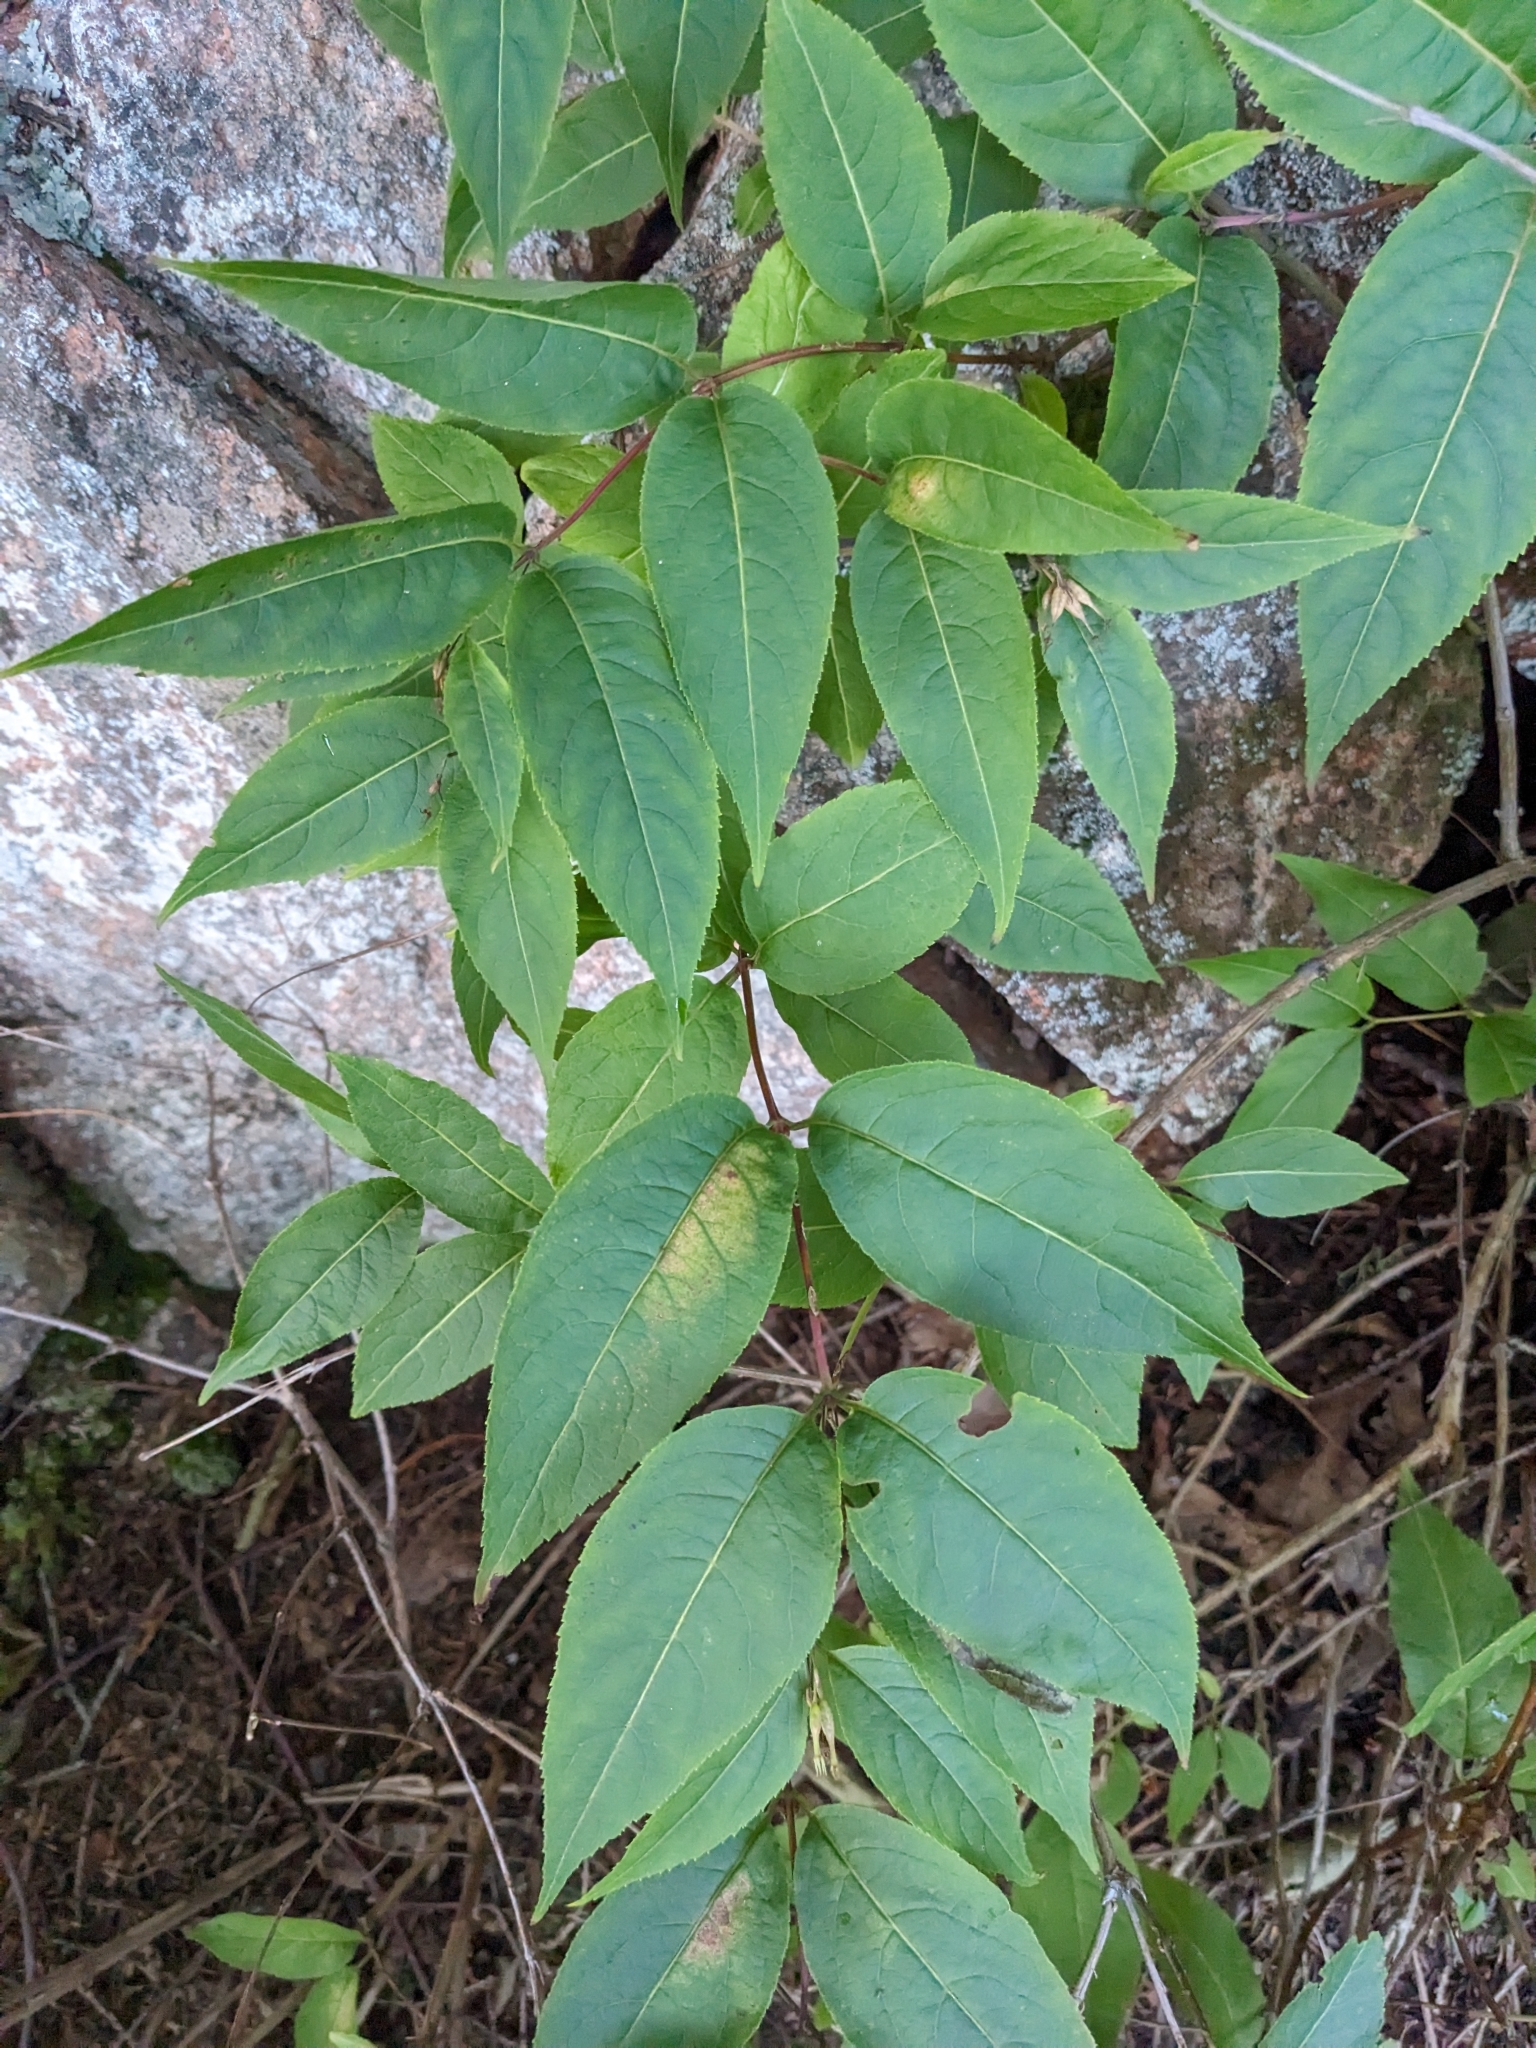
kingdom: Plantae
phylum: Tracheophyta
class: Magnoliopsida
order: Dipsacales
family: Caprifoliaceae
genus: Diervilla
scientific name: Diervilla lonicera
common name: Bush-honeysuckle
